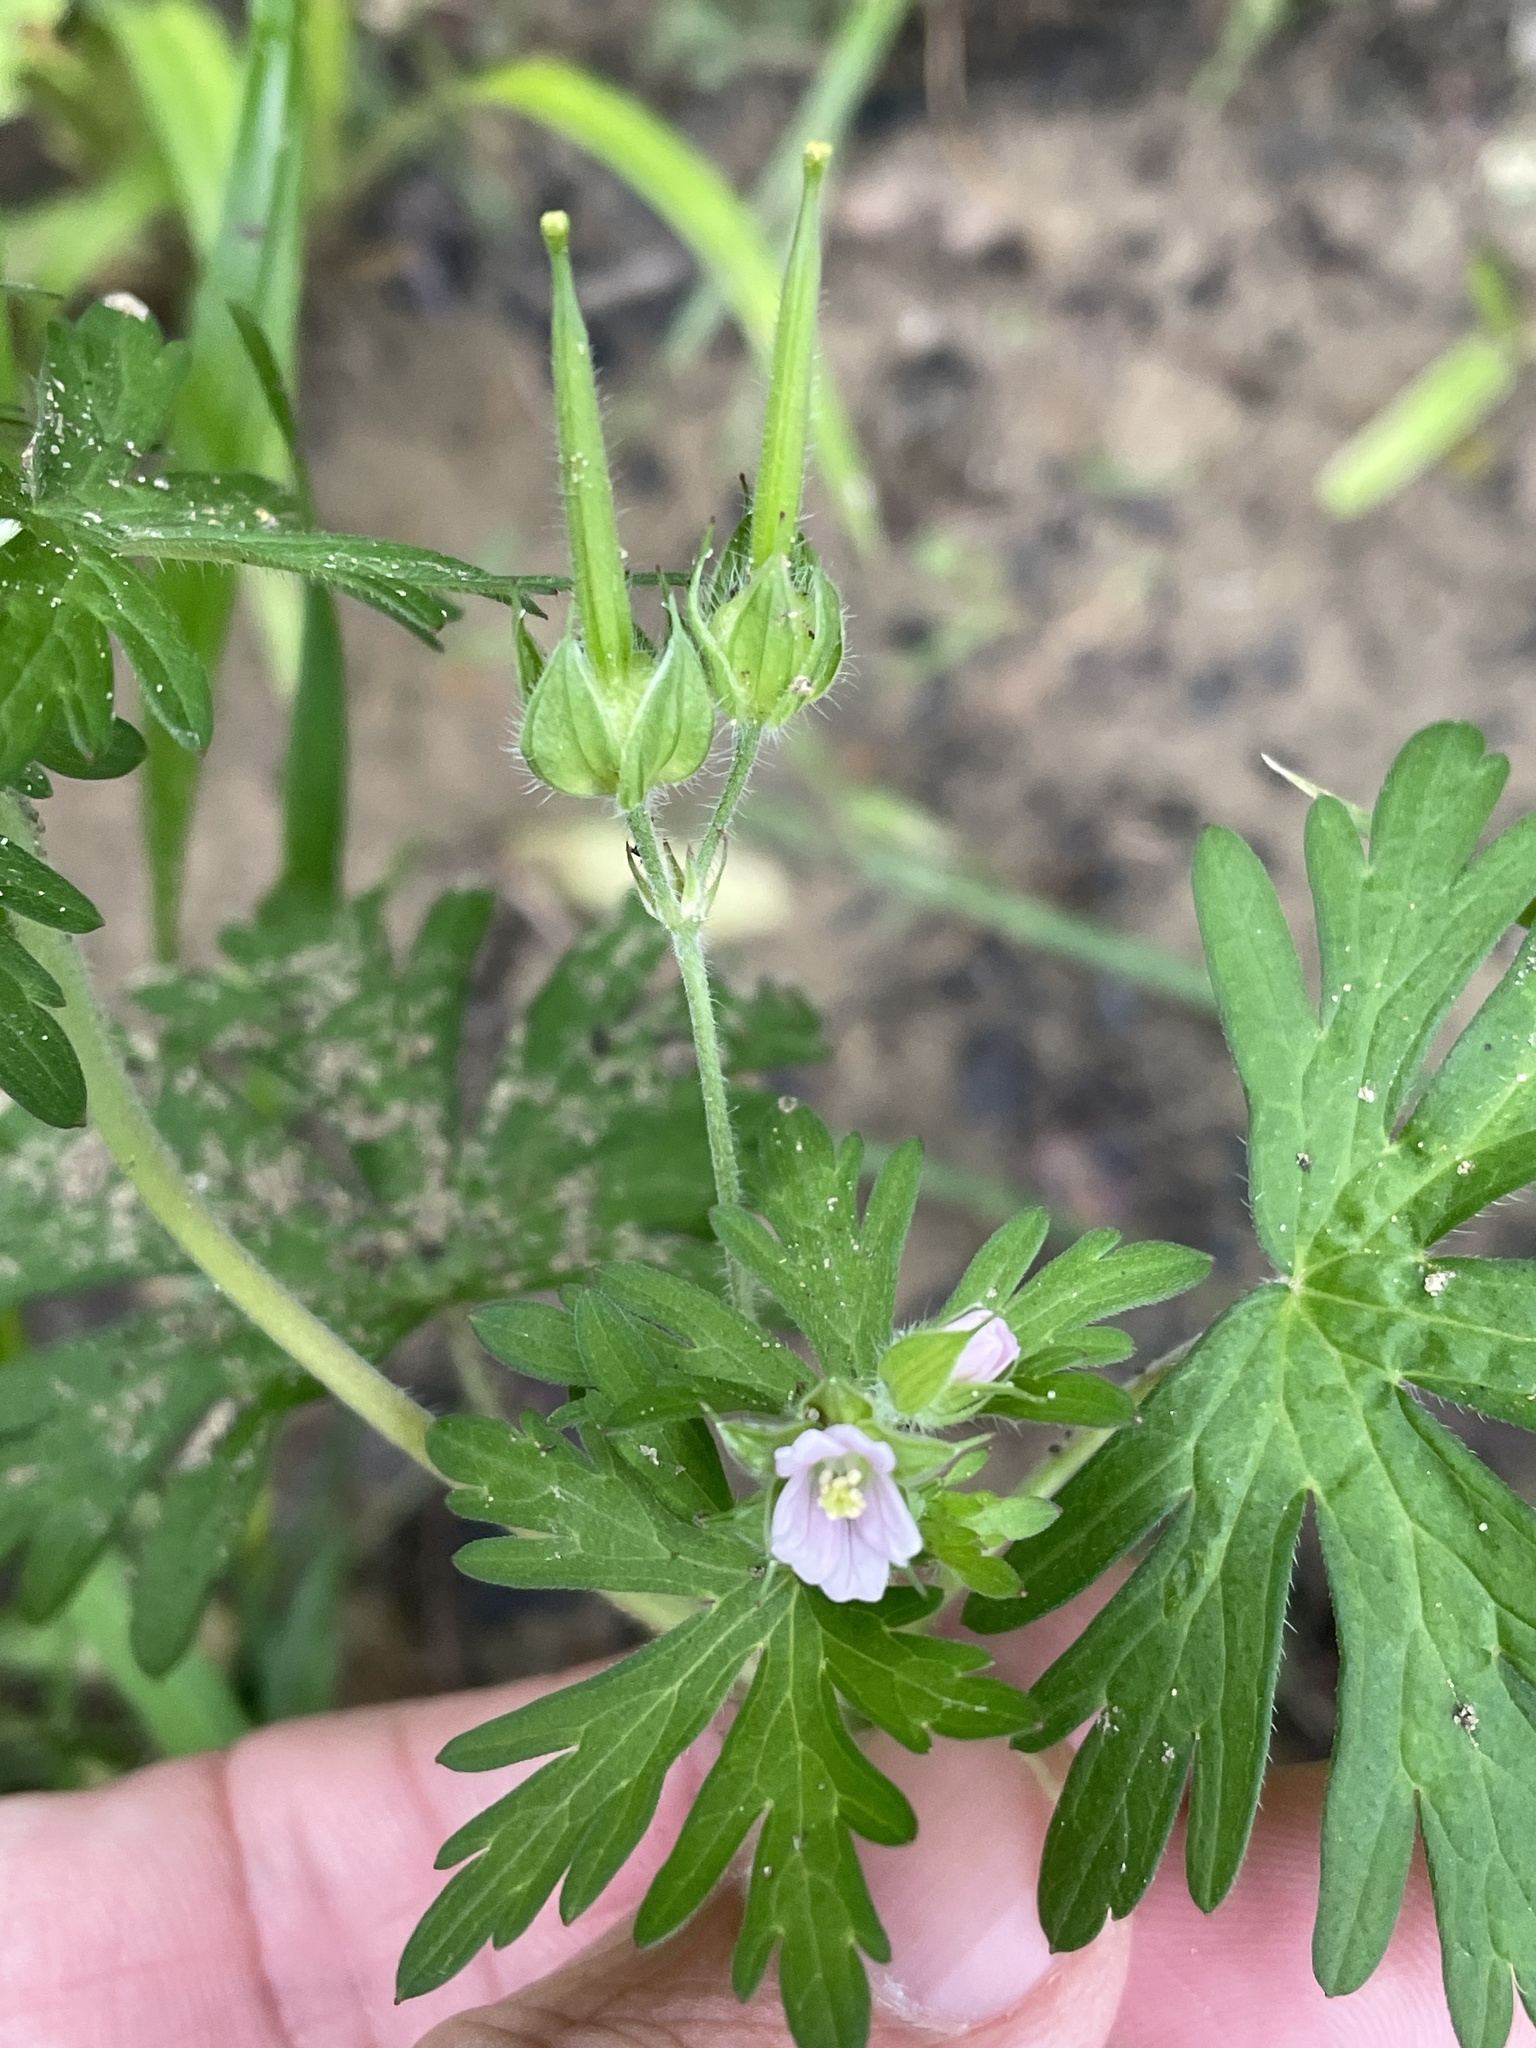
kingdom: Plantae
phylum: Tracheophyta
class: Magnoliopsida
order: Geraniales
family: Geraniaceae
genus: Geranium
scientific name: Geranium carolinianum
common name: Carolina crane's-bill
